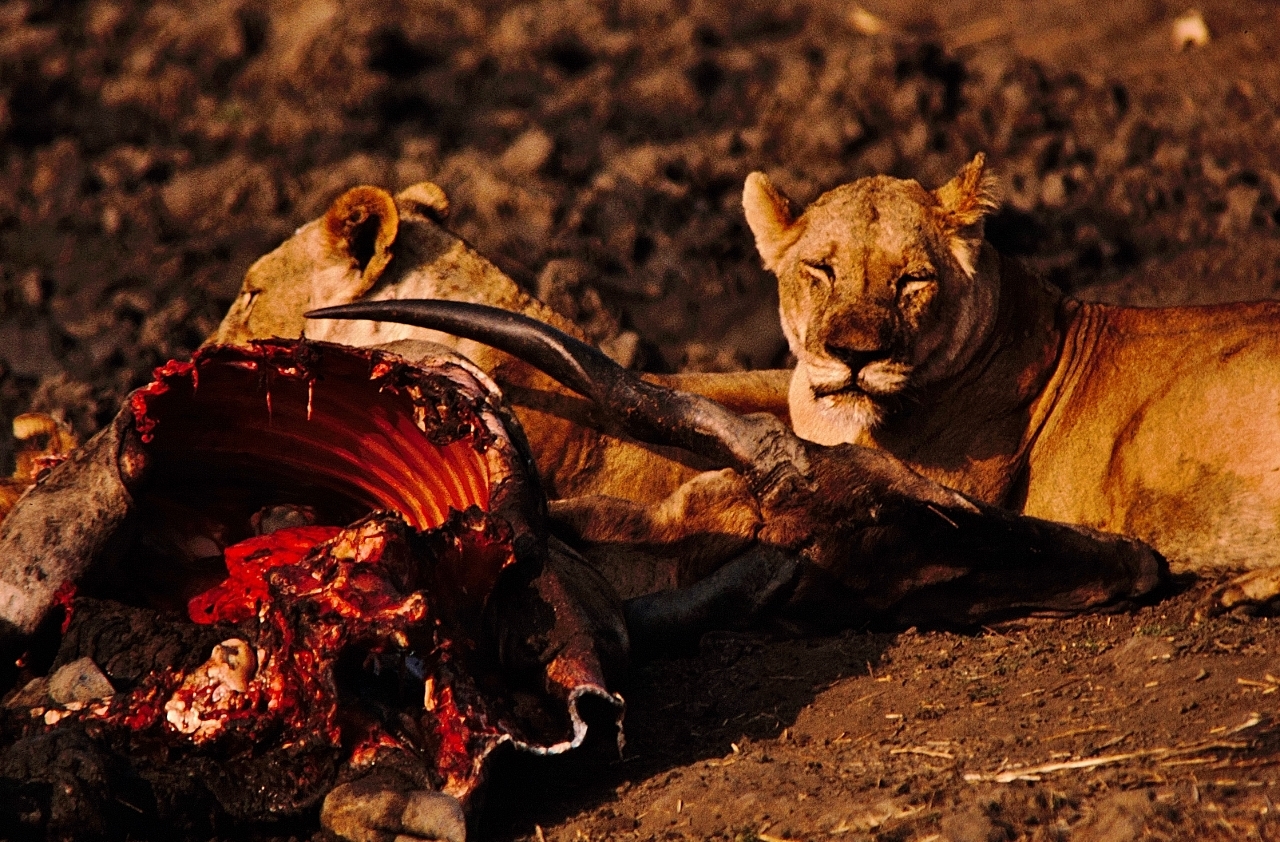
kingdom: Animalia
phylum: Chordata
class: Mammalia
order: Artiodactyla
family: Bovidae
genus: Taurotragus
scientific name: Taurotragus oryx
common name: Common eland
